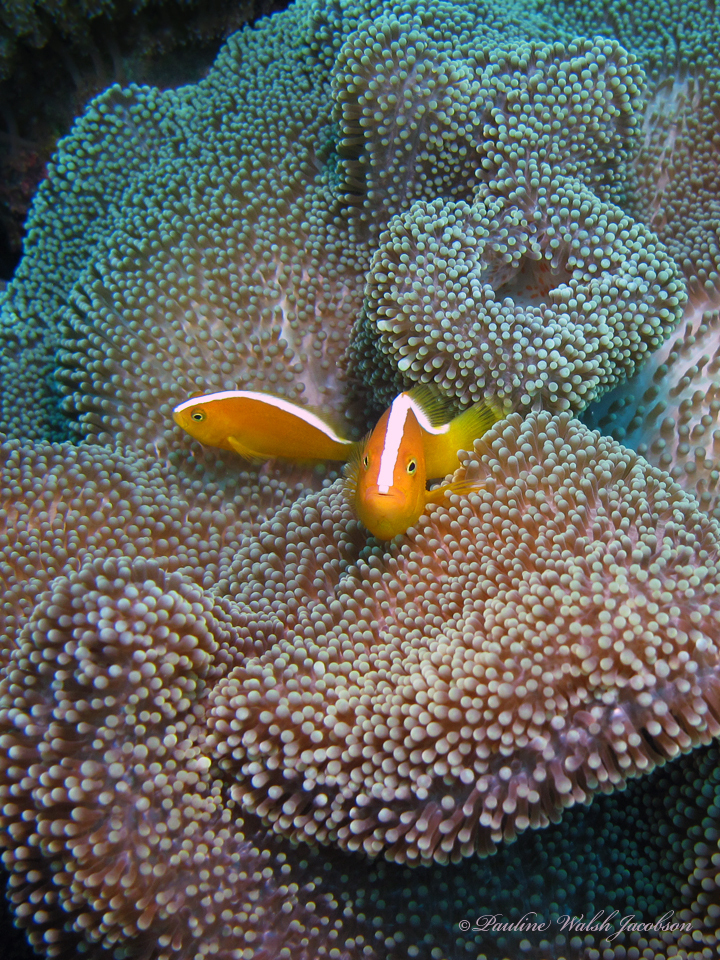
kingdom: Animalia
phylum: Chordata
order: Perciformes
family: Pomacentridae
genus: Amphiprion
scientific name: Amphiprion sandaracinos
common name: Orange anemonefish
